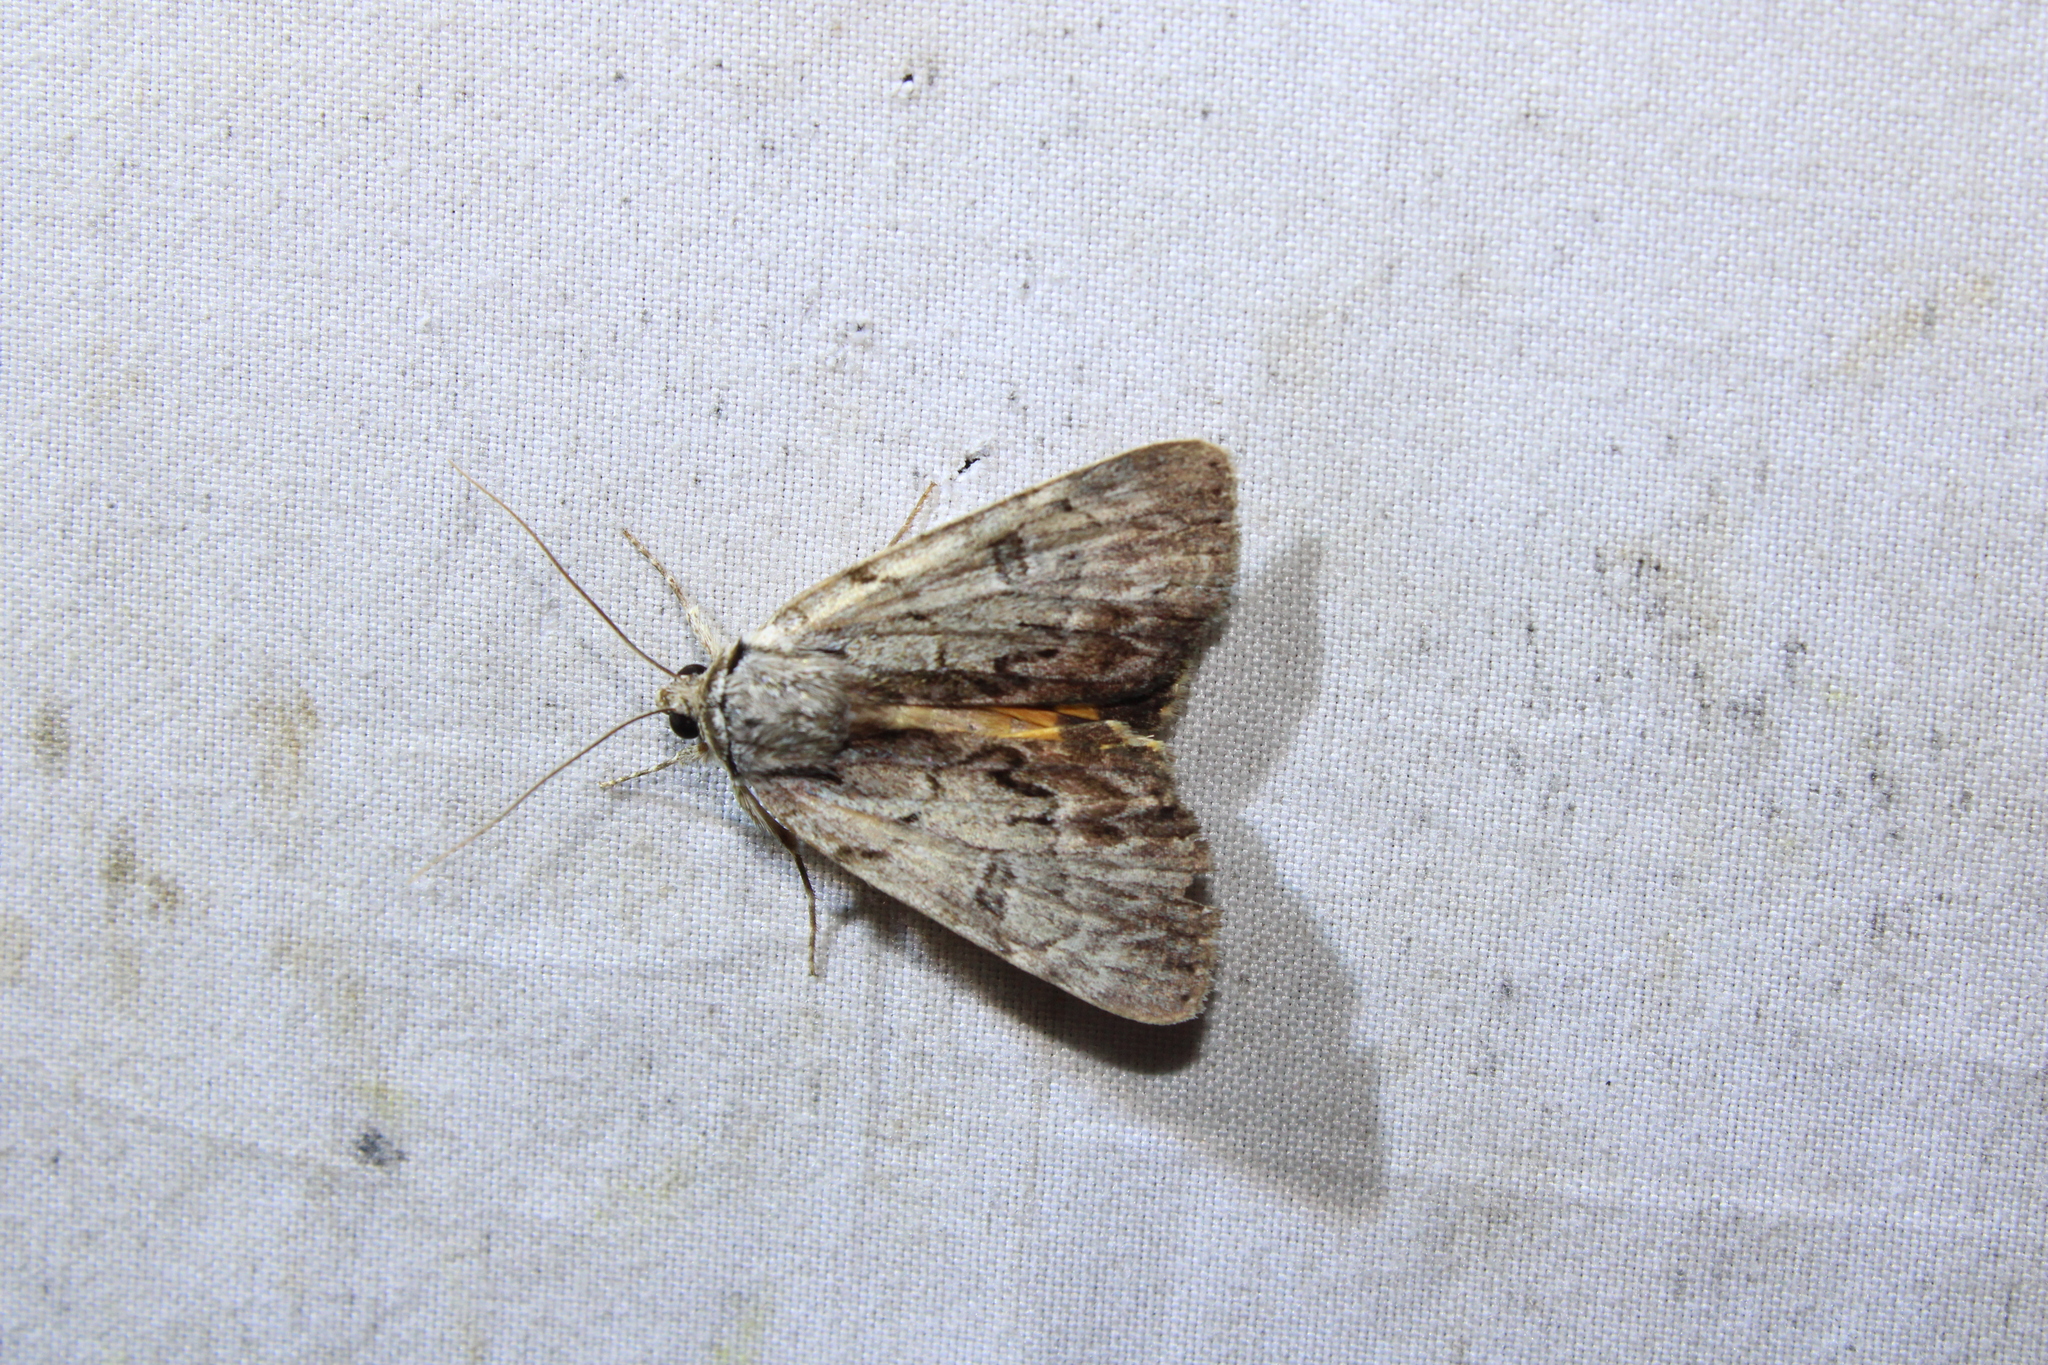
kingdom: Animalia
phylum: Arthropoda
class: Insecta
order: Lepidoptera
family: Erebidae
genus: Catocala
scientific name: Catocala sordida
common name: Sordid underwing
